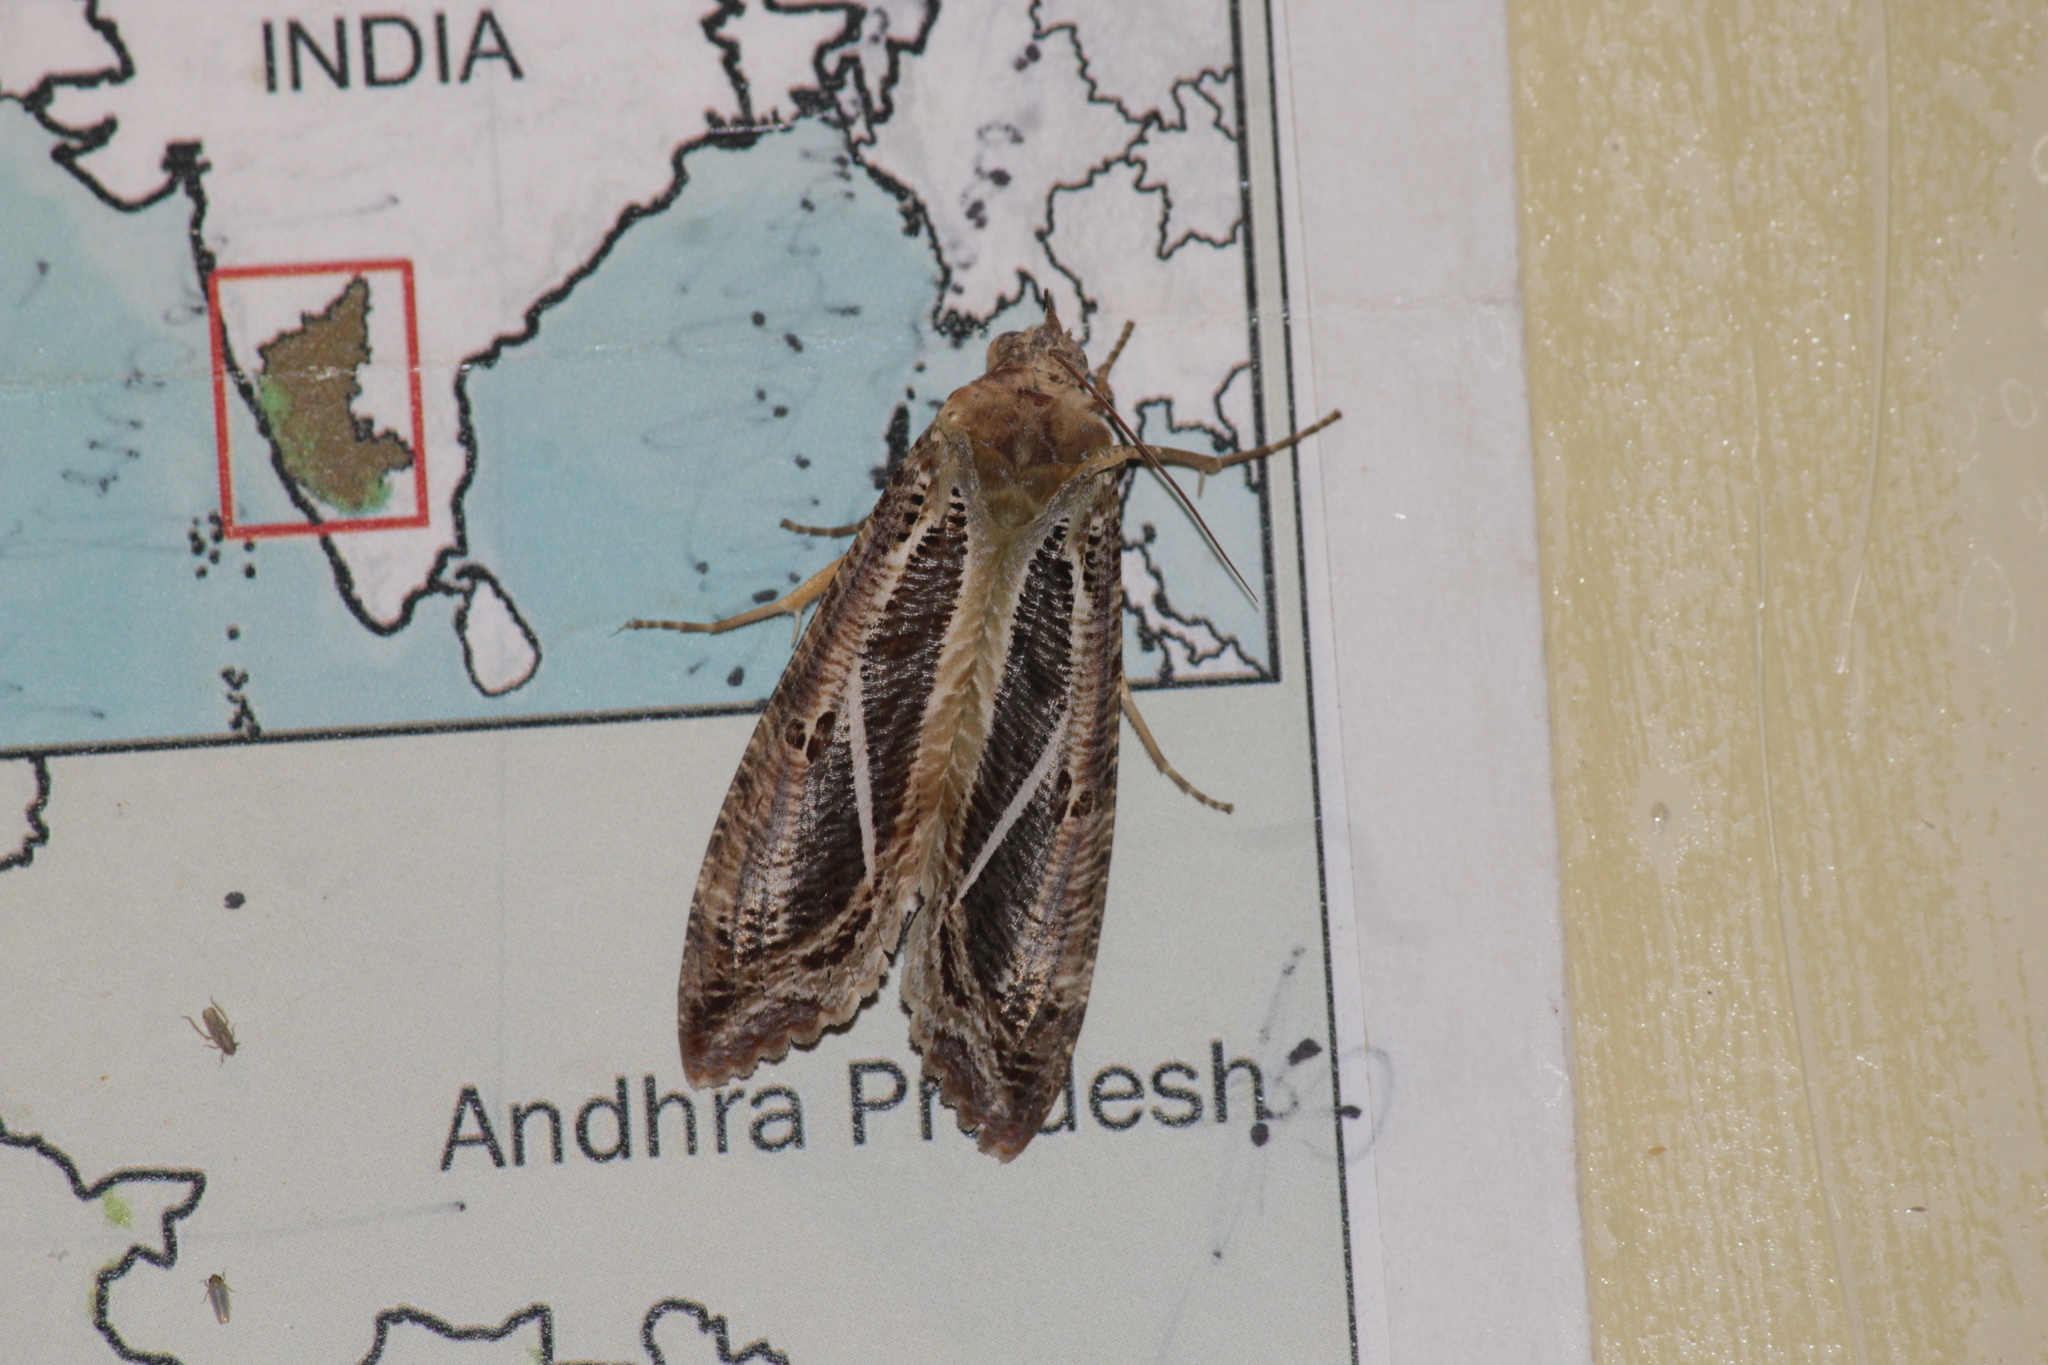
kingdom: Animalia
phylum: Arthropoda
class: Insecta
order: Lepidoptera
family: Erebidae
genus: Eudocima
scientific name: Eudocima materna
